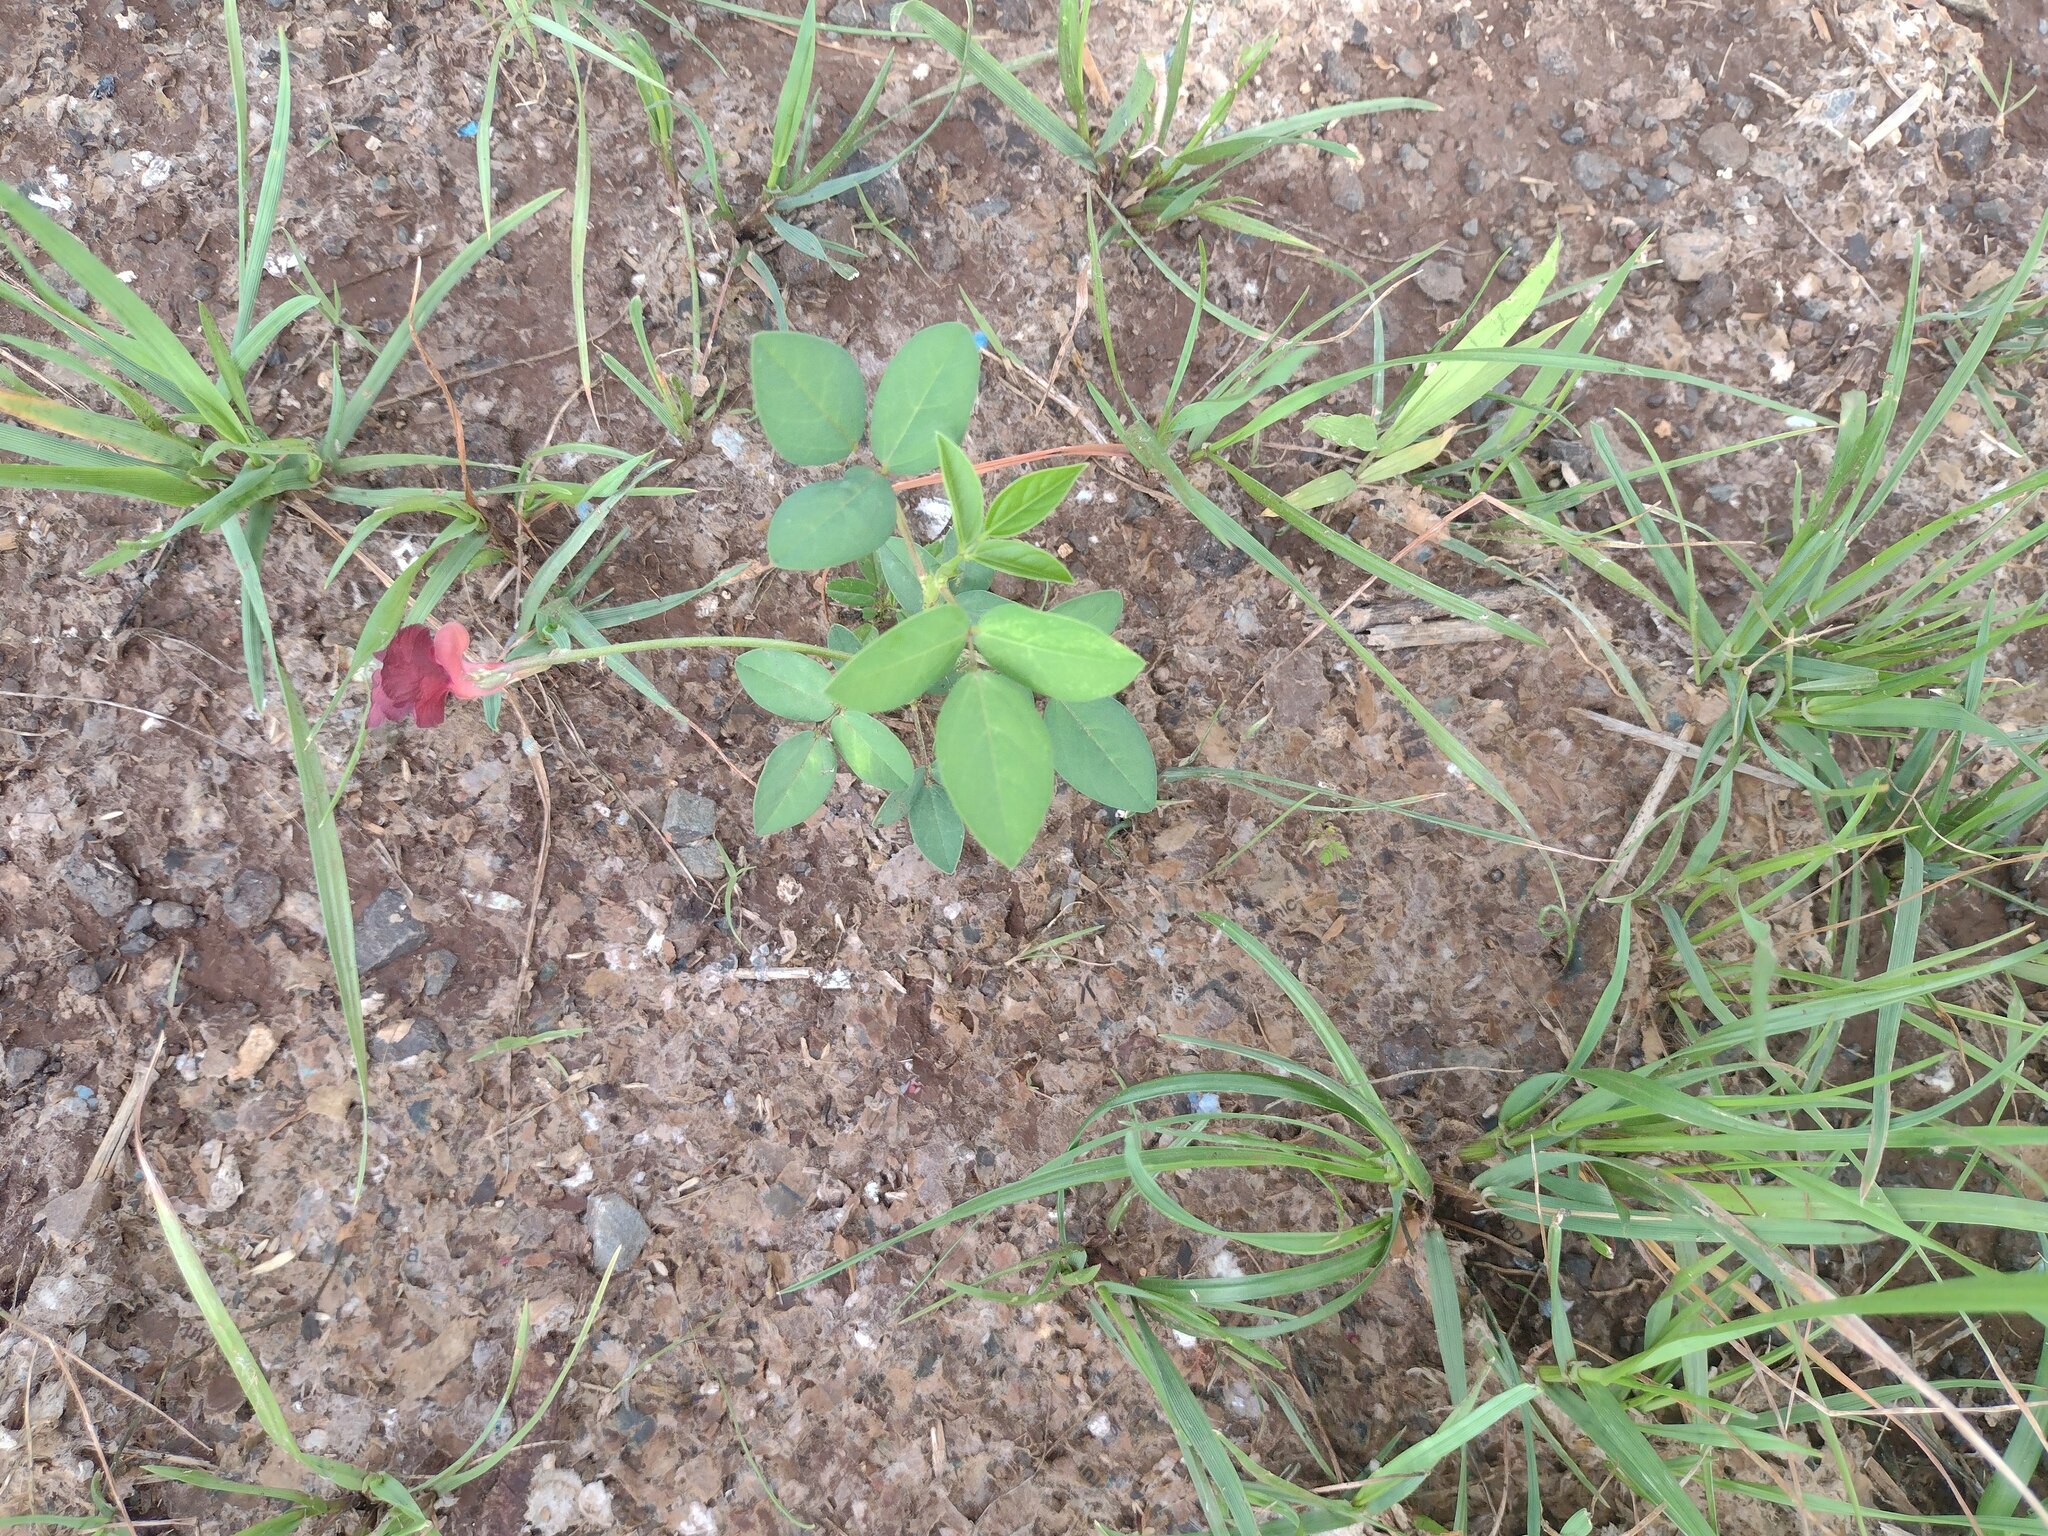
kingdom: Plantae
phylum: Tracheophyta
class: Magnoliopsida
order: Fabales
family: Fabaceae
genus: Macroptilium
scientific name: Macroptilium lathyroides
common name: Wild bushbean
